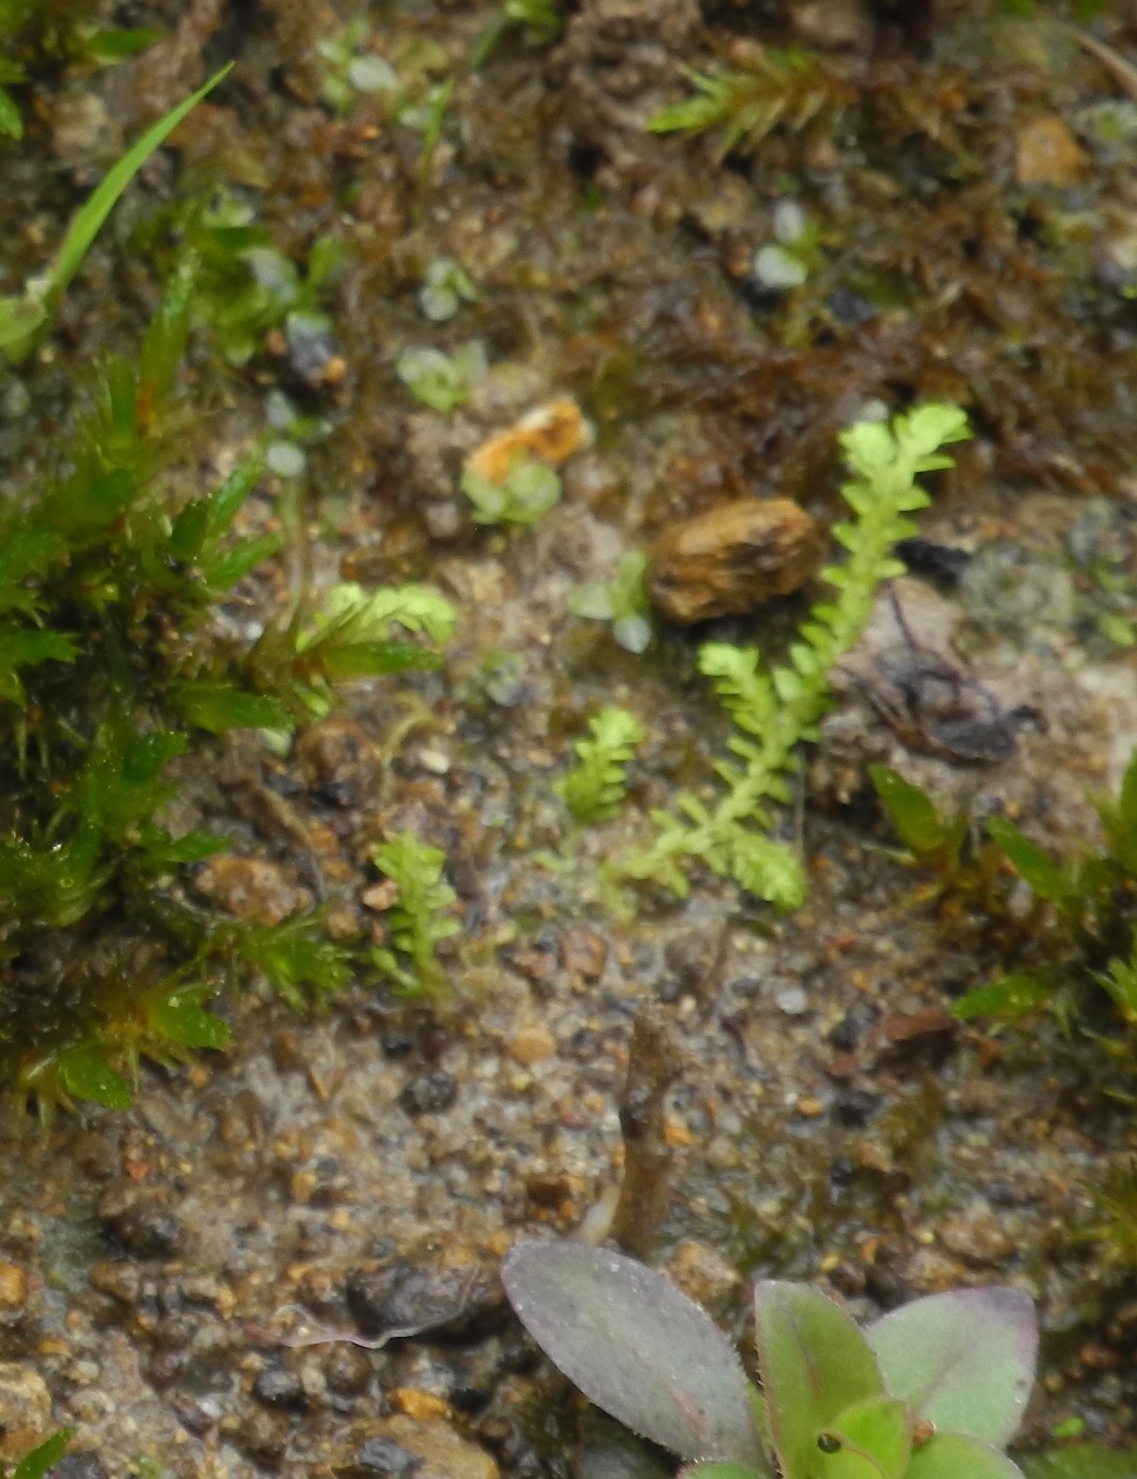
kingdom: Plantae
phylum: Tracheophyta
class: Lycopodiopsida
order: Selaginellales
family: Selaginellaceae
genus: Selaginella
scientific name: Selaginella apoda
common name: Creeping spikemoss
